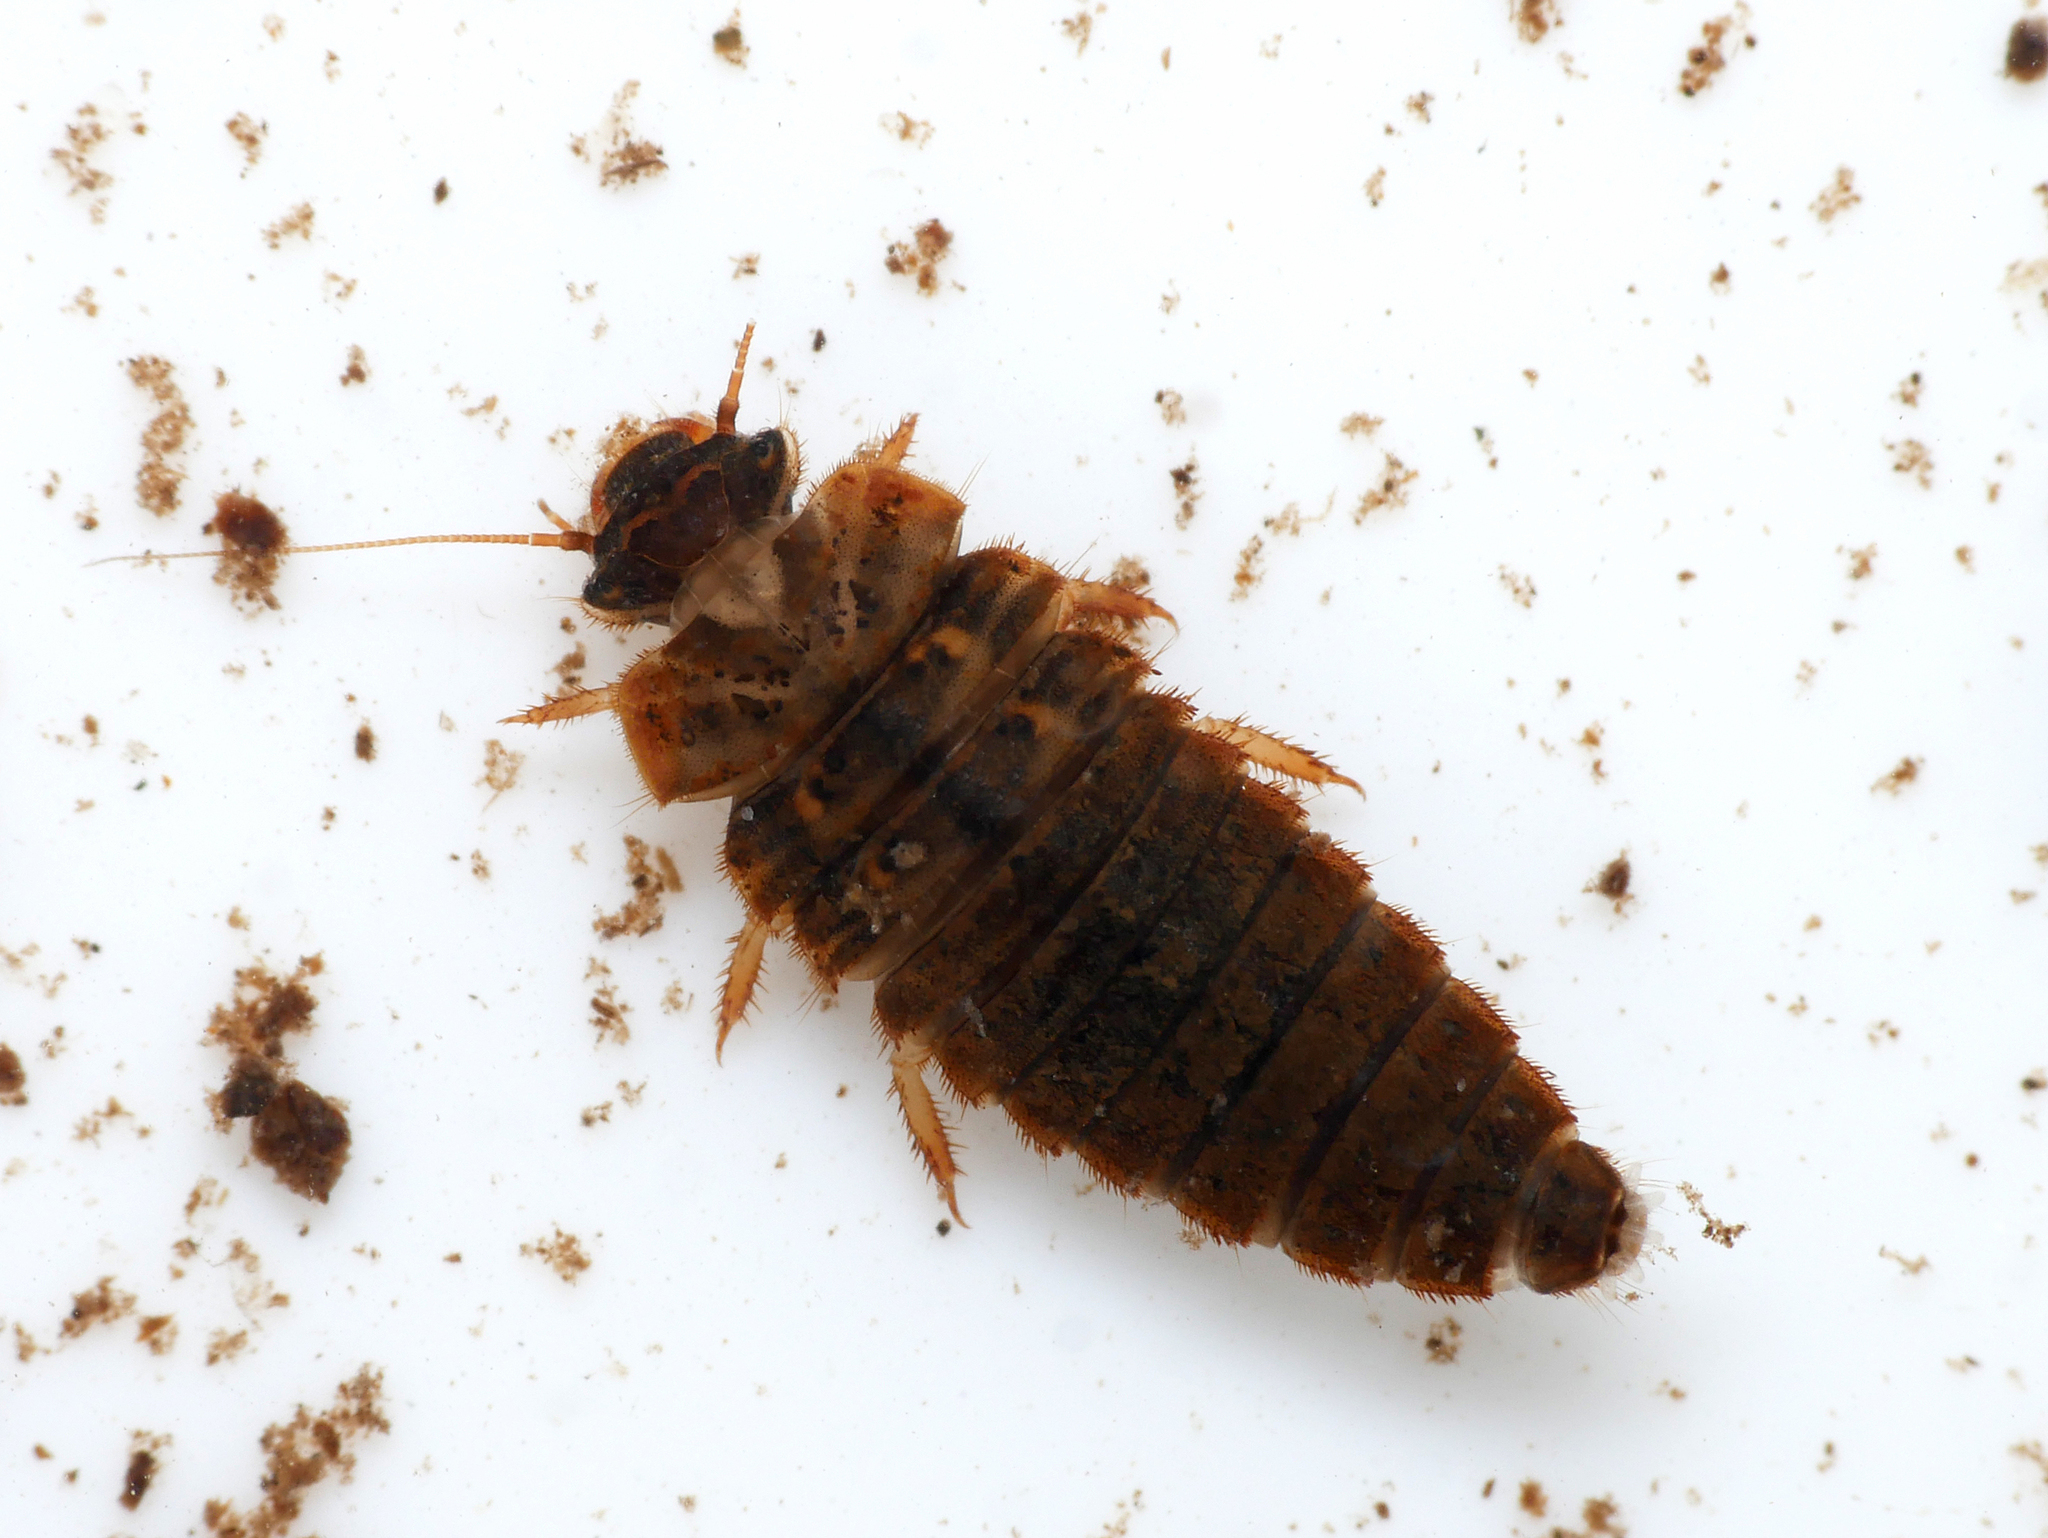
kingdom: Animalia
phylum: Arthropoda
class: Insecta
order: Coleoptera
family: Scirtidae
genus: Odeles
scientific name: Odeles marginata
